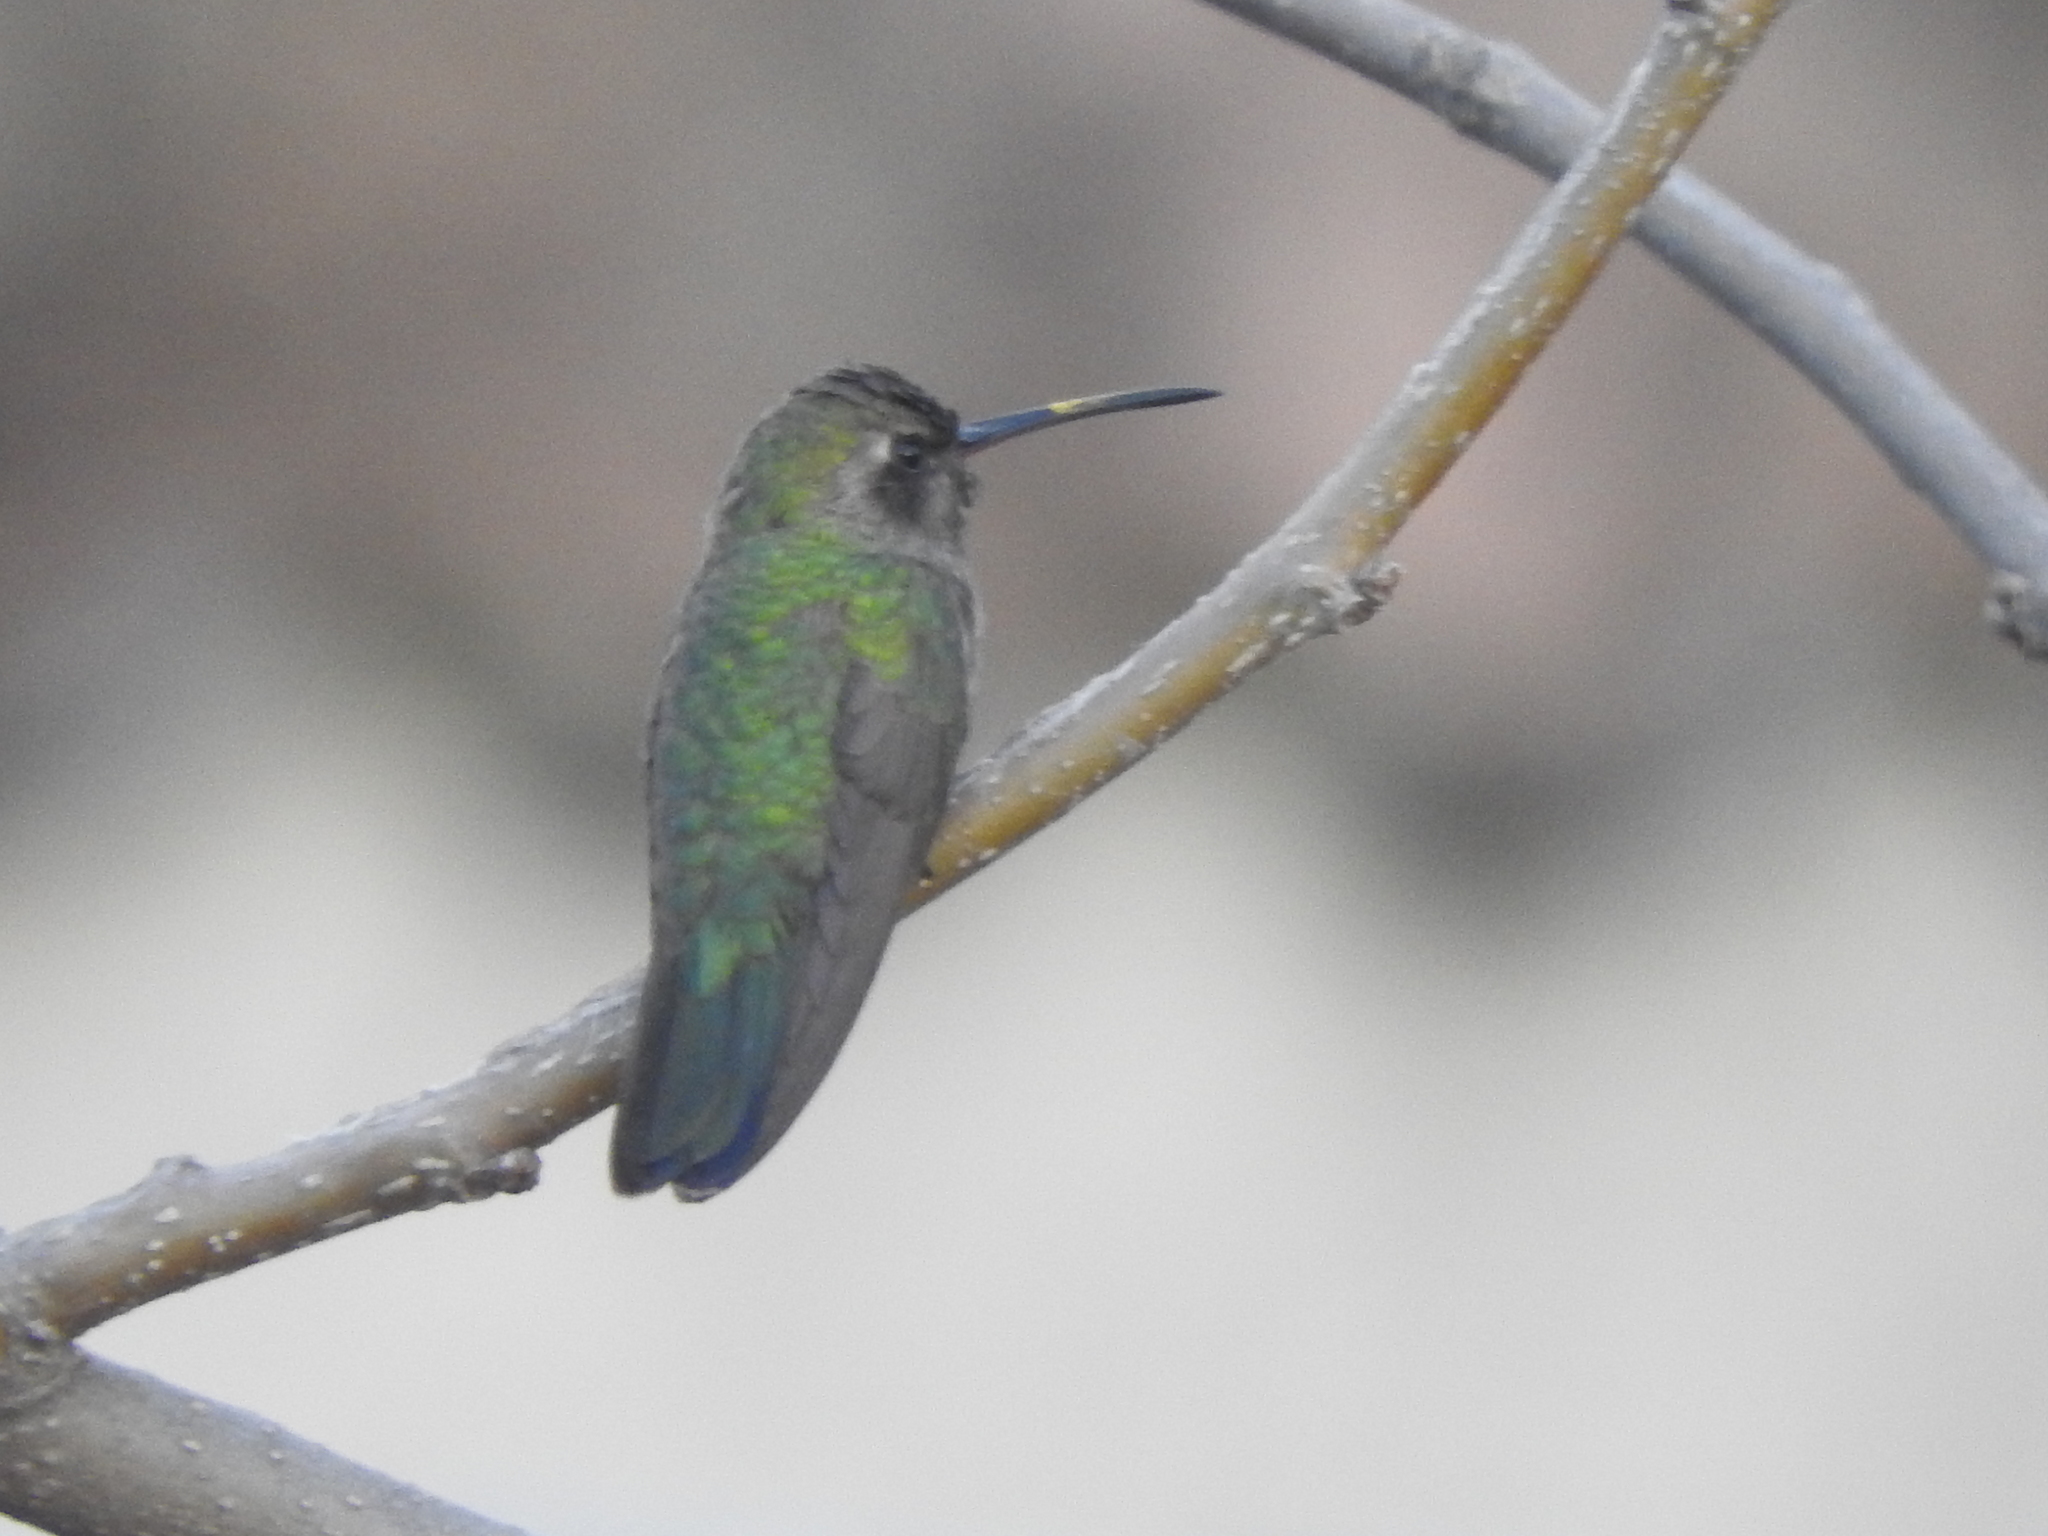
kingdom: Animalia
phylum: Chordata
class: Aves
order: Apodiformes
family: Trochilidae
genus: Cynanthus
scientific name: Cynanthus latirostris
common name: Broad-billed hummingbird
